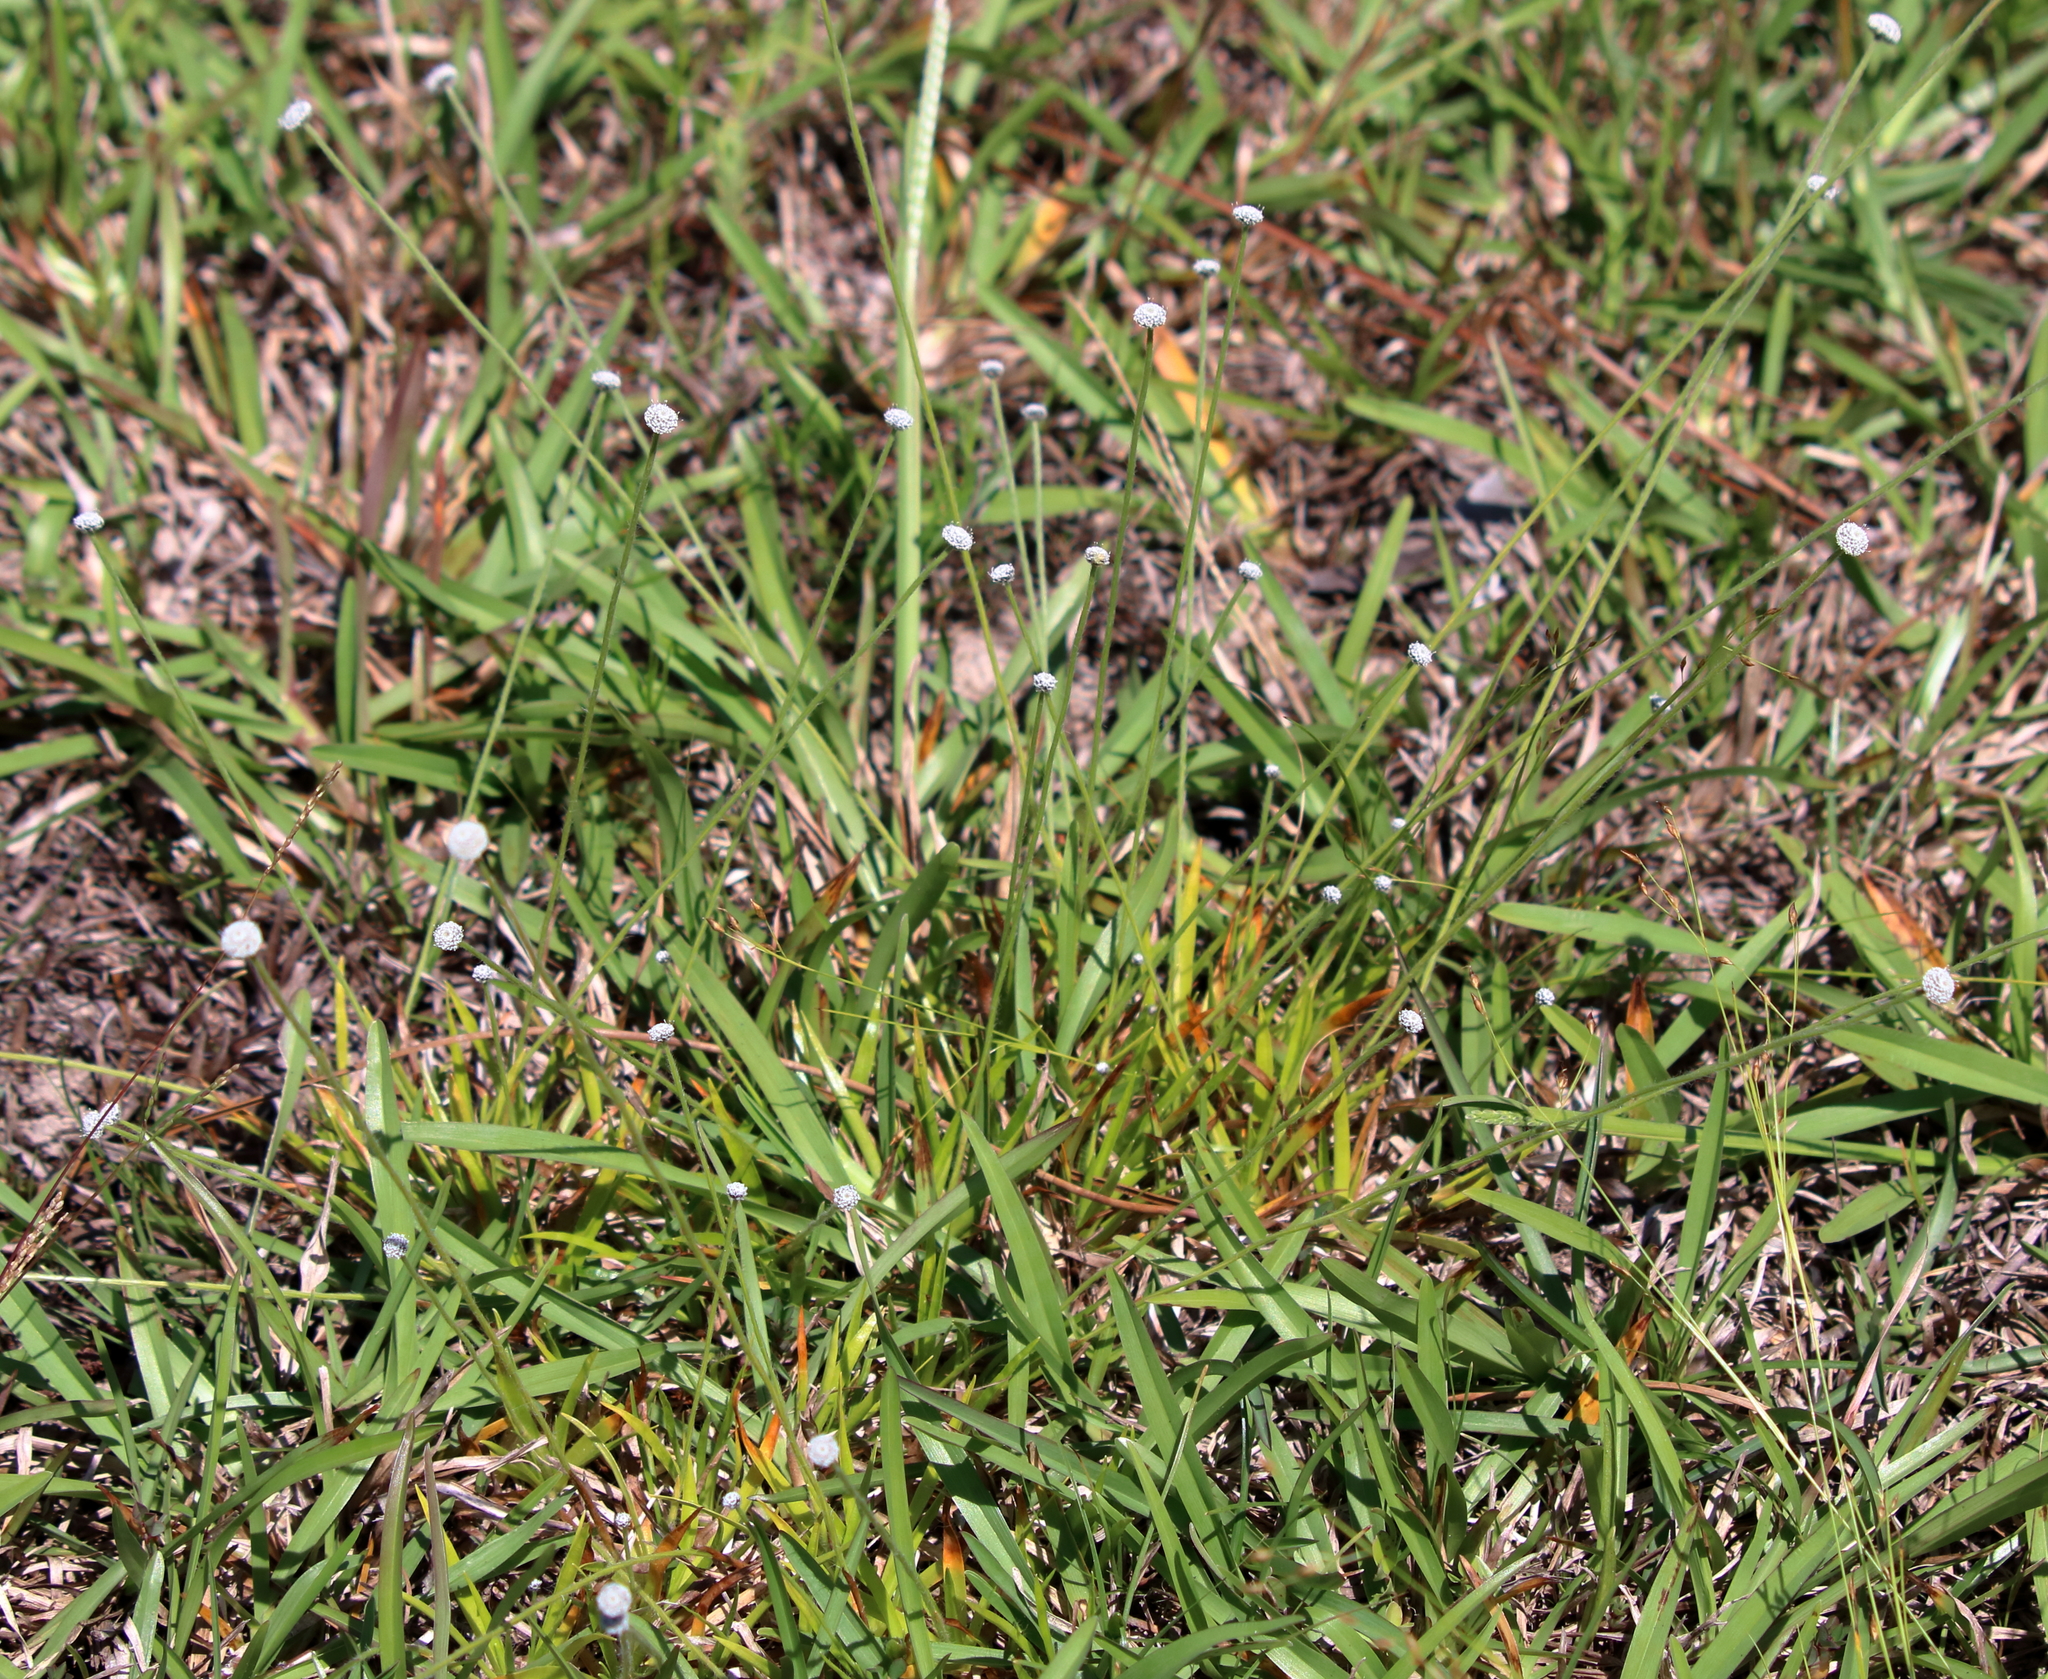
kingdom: Plantae
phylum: Tracheophyta
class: Liliopsida
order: Poales
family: Eriocaulaceae
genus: Paepalanthus
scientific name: Paepalanthus anceps
